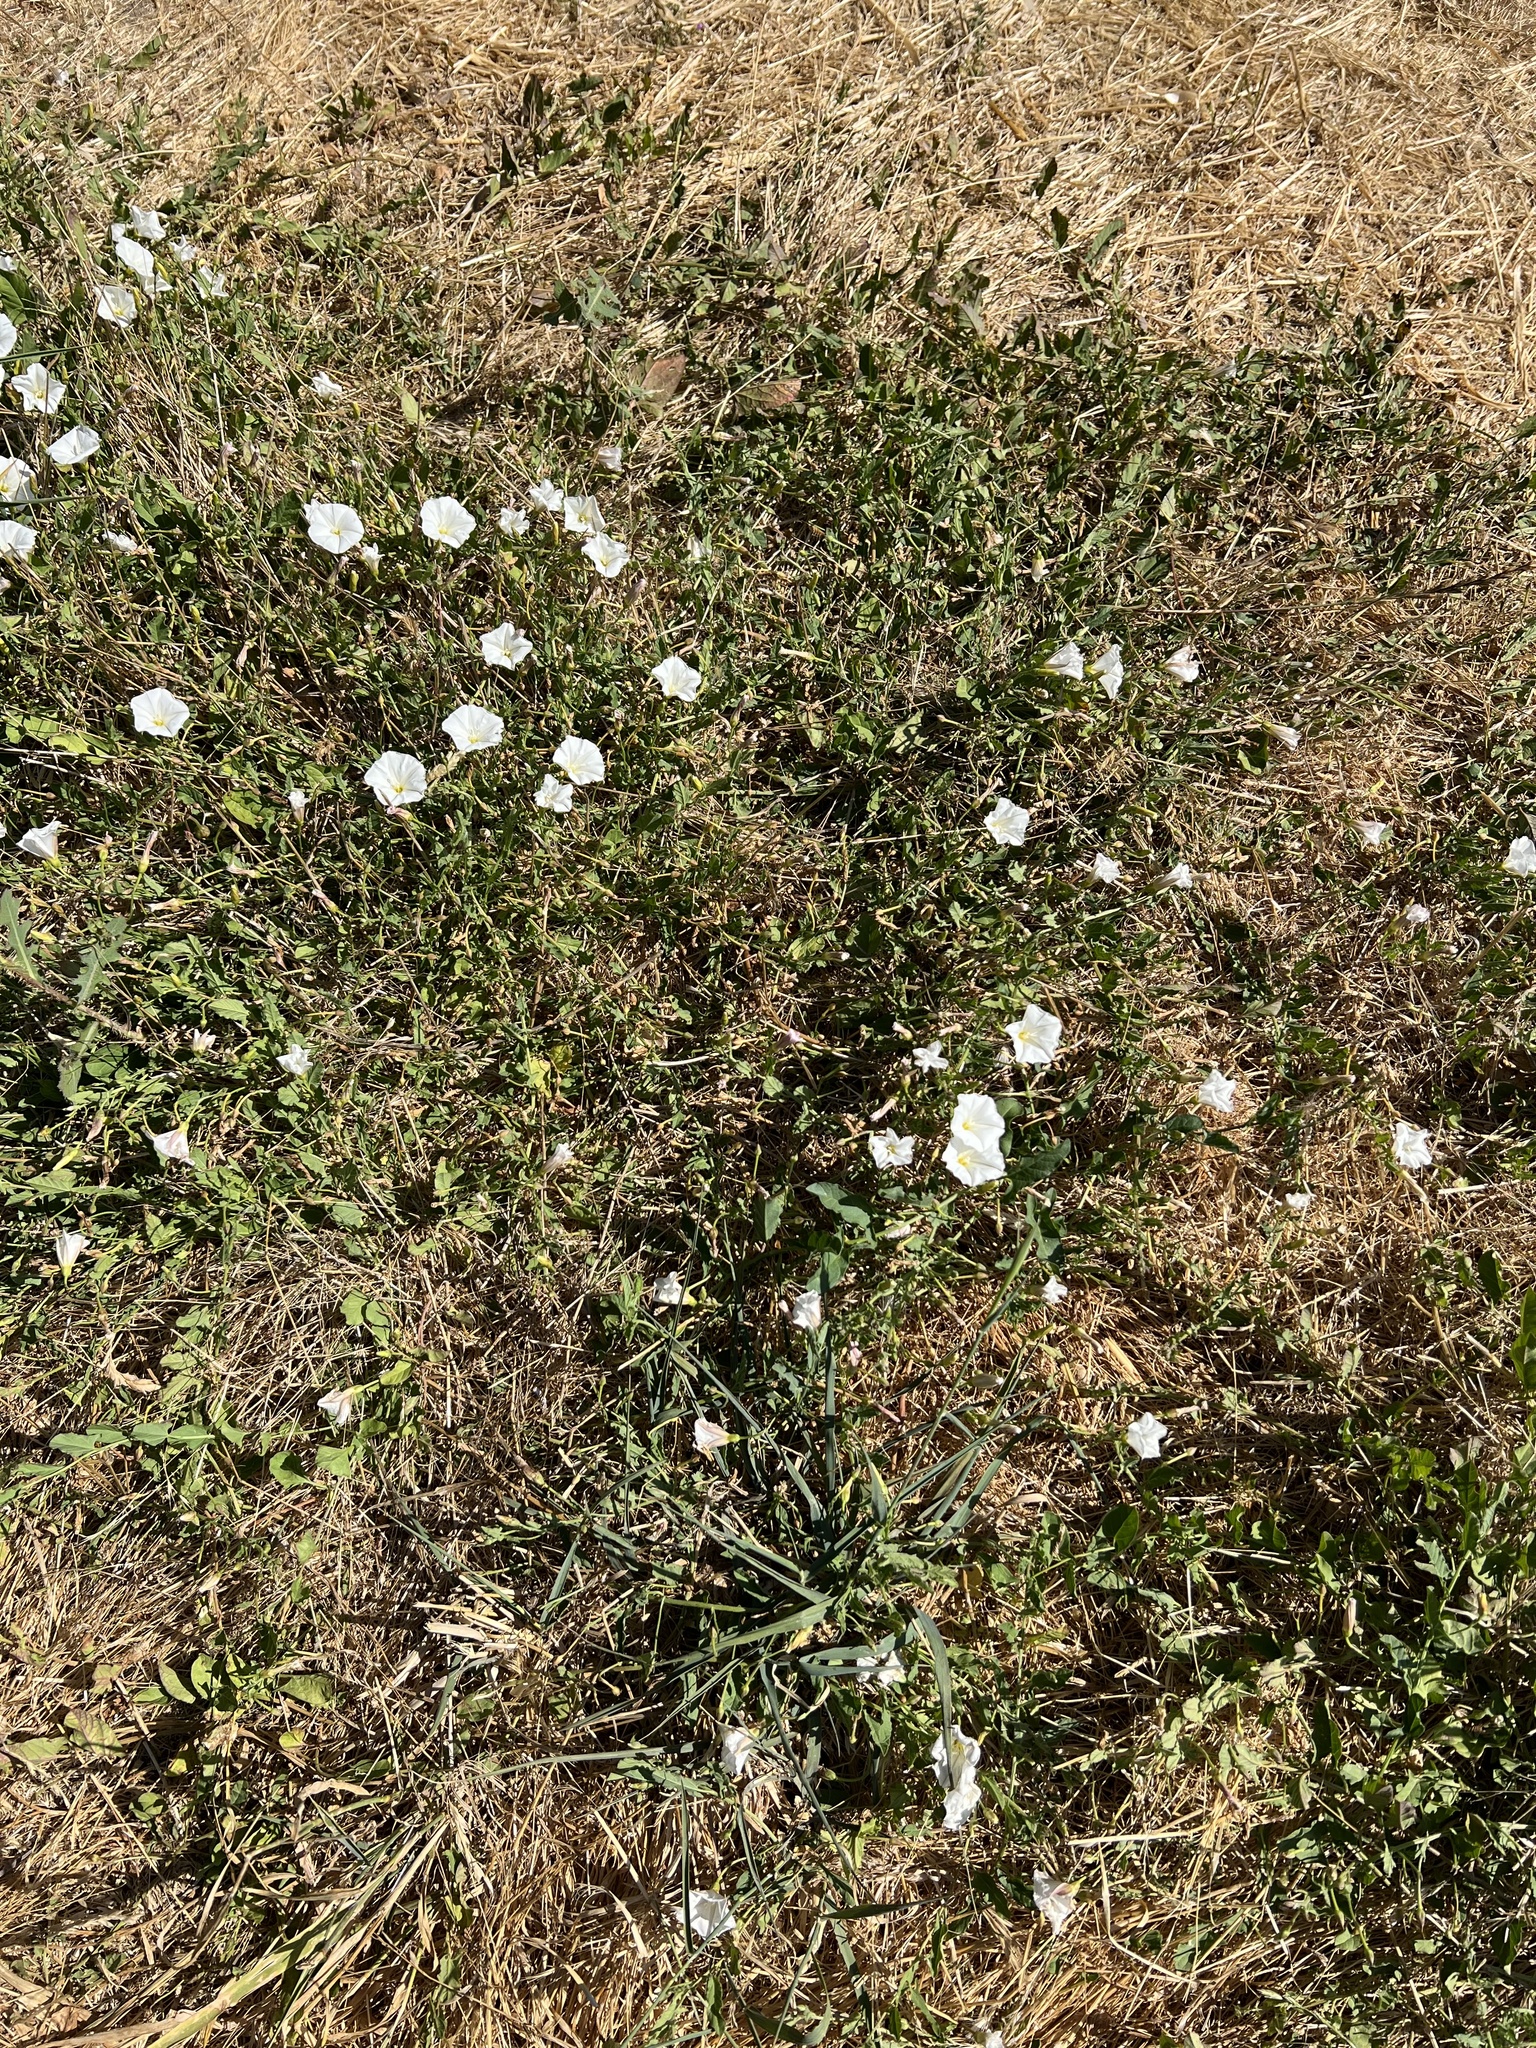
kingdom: Plantae
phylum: Tracheophyta
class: Magnoliopsida
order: Solanales
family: Convolvulaceae
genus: Convolvulus
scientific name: Convolvulus arvensis
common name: Field bindweed
